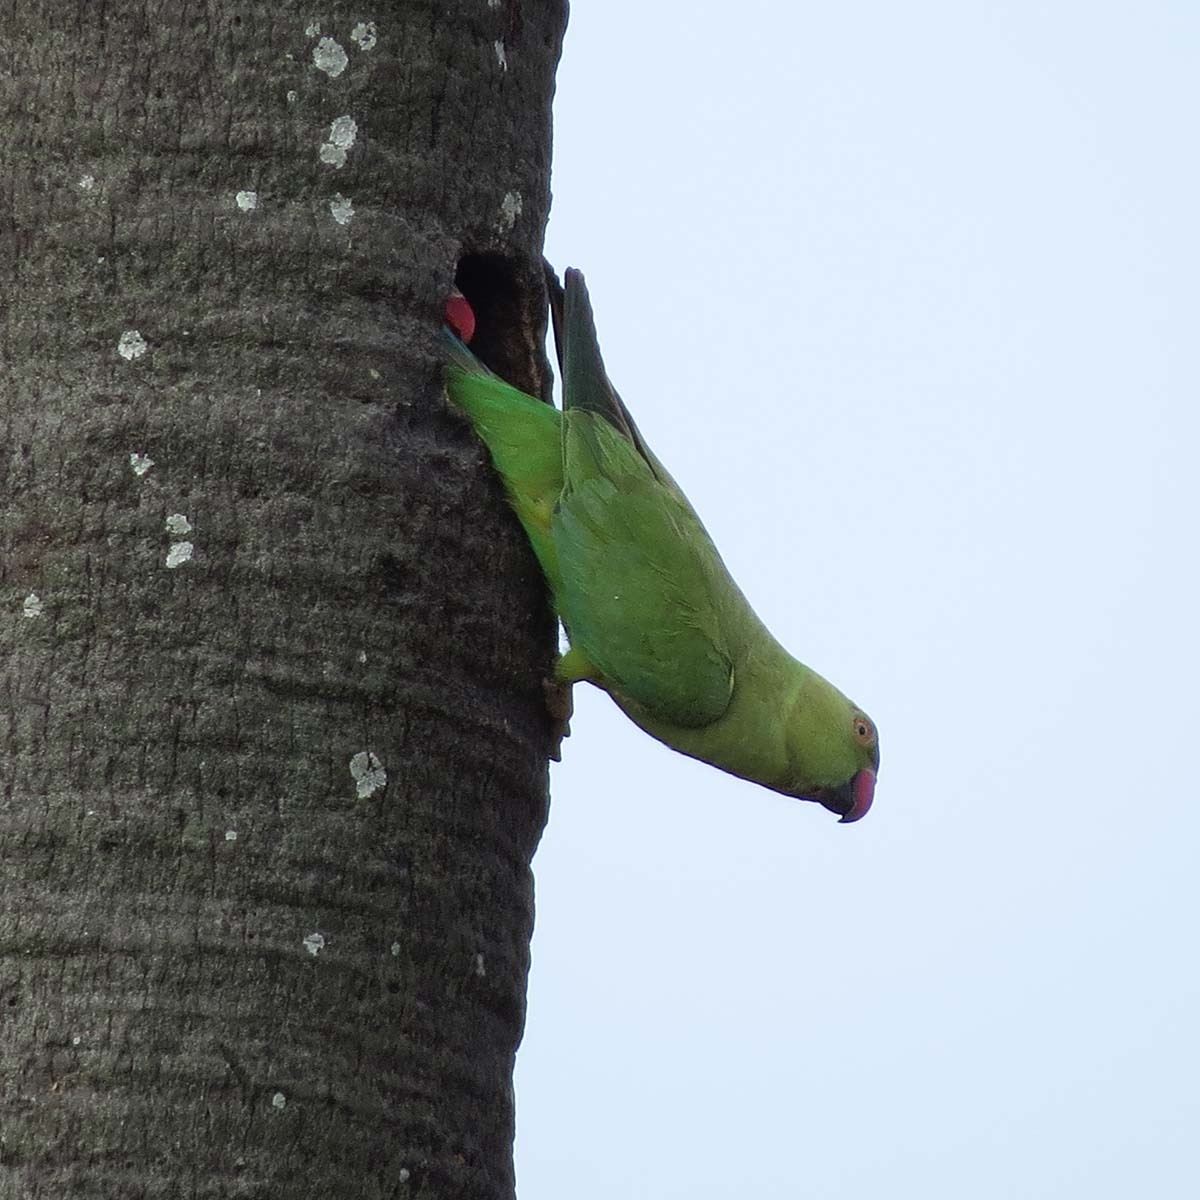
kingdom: Animalia
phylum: Chordata
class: Aves
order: Psittaciformes
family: Psittacidae
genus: Psittacula
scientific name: Psittacula krameri
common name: Rose-ringed parakeet
